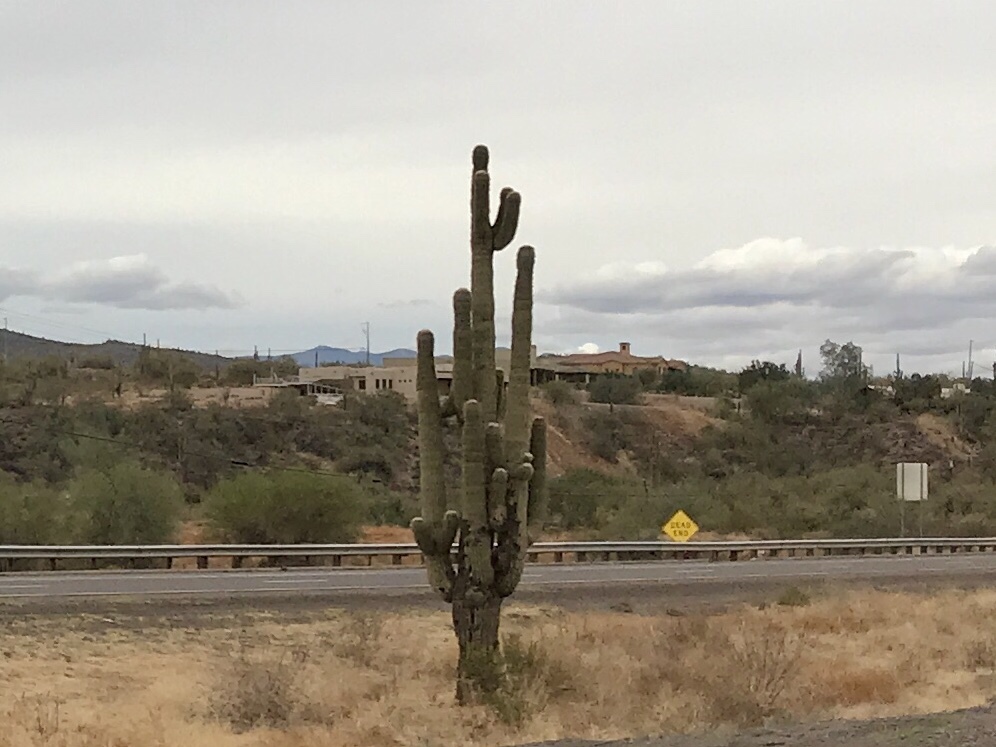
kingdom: Plantae
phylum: Tracheophyta
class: Magnoliopsida
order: Caryophyllales
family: Cactaceae
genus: Carnegiea
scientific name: Carnegiea gigantea
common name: Saguaro
